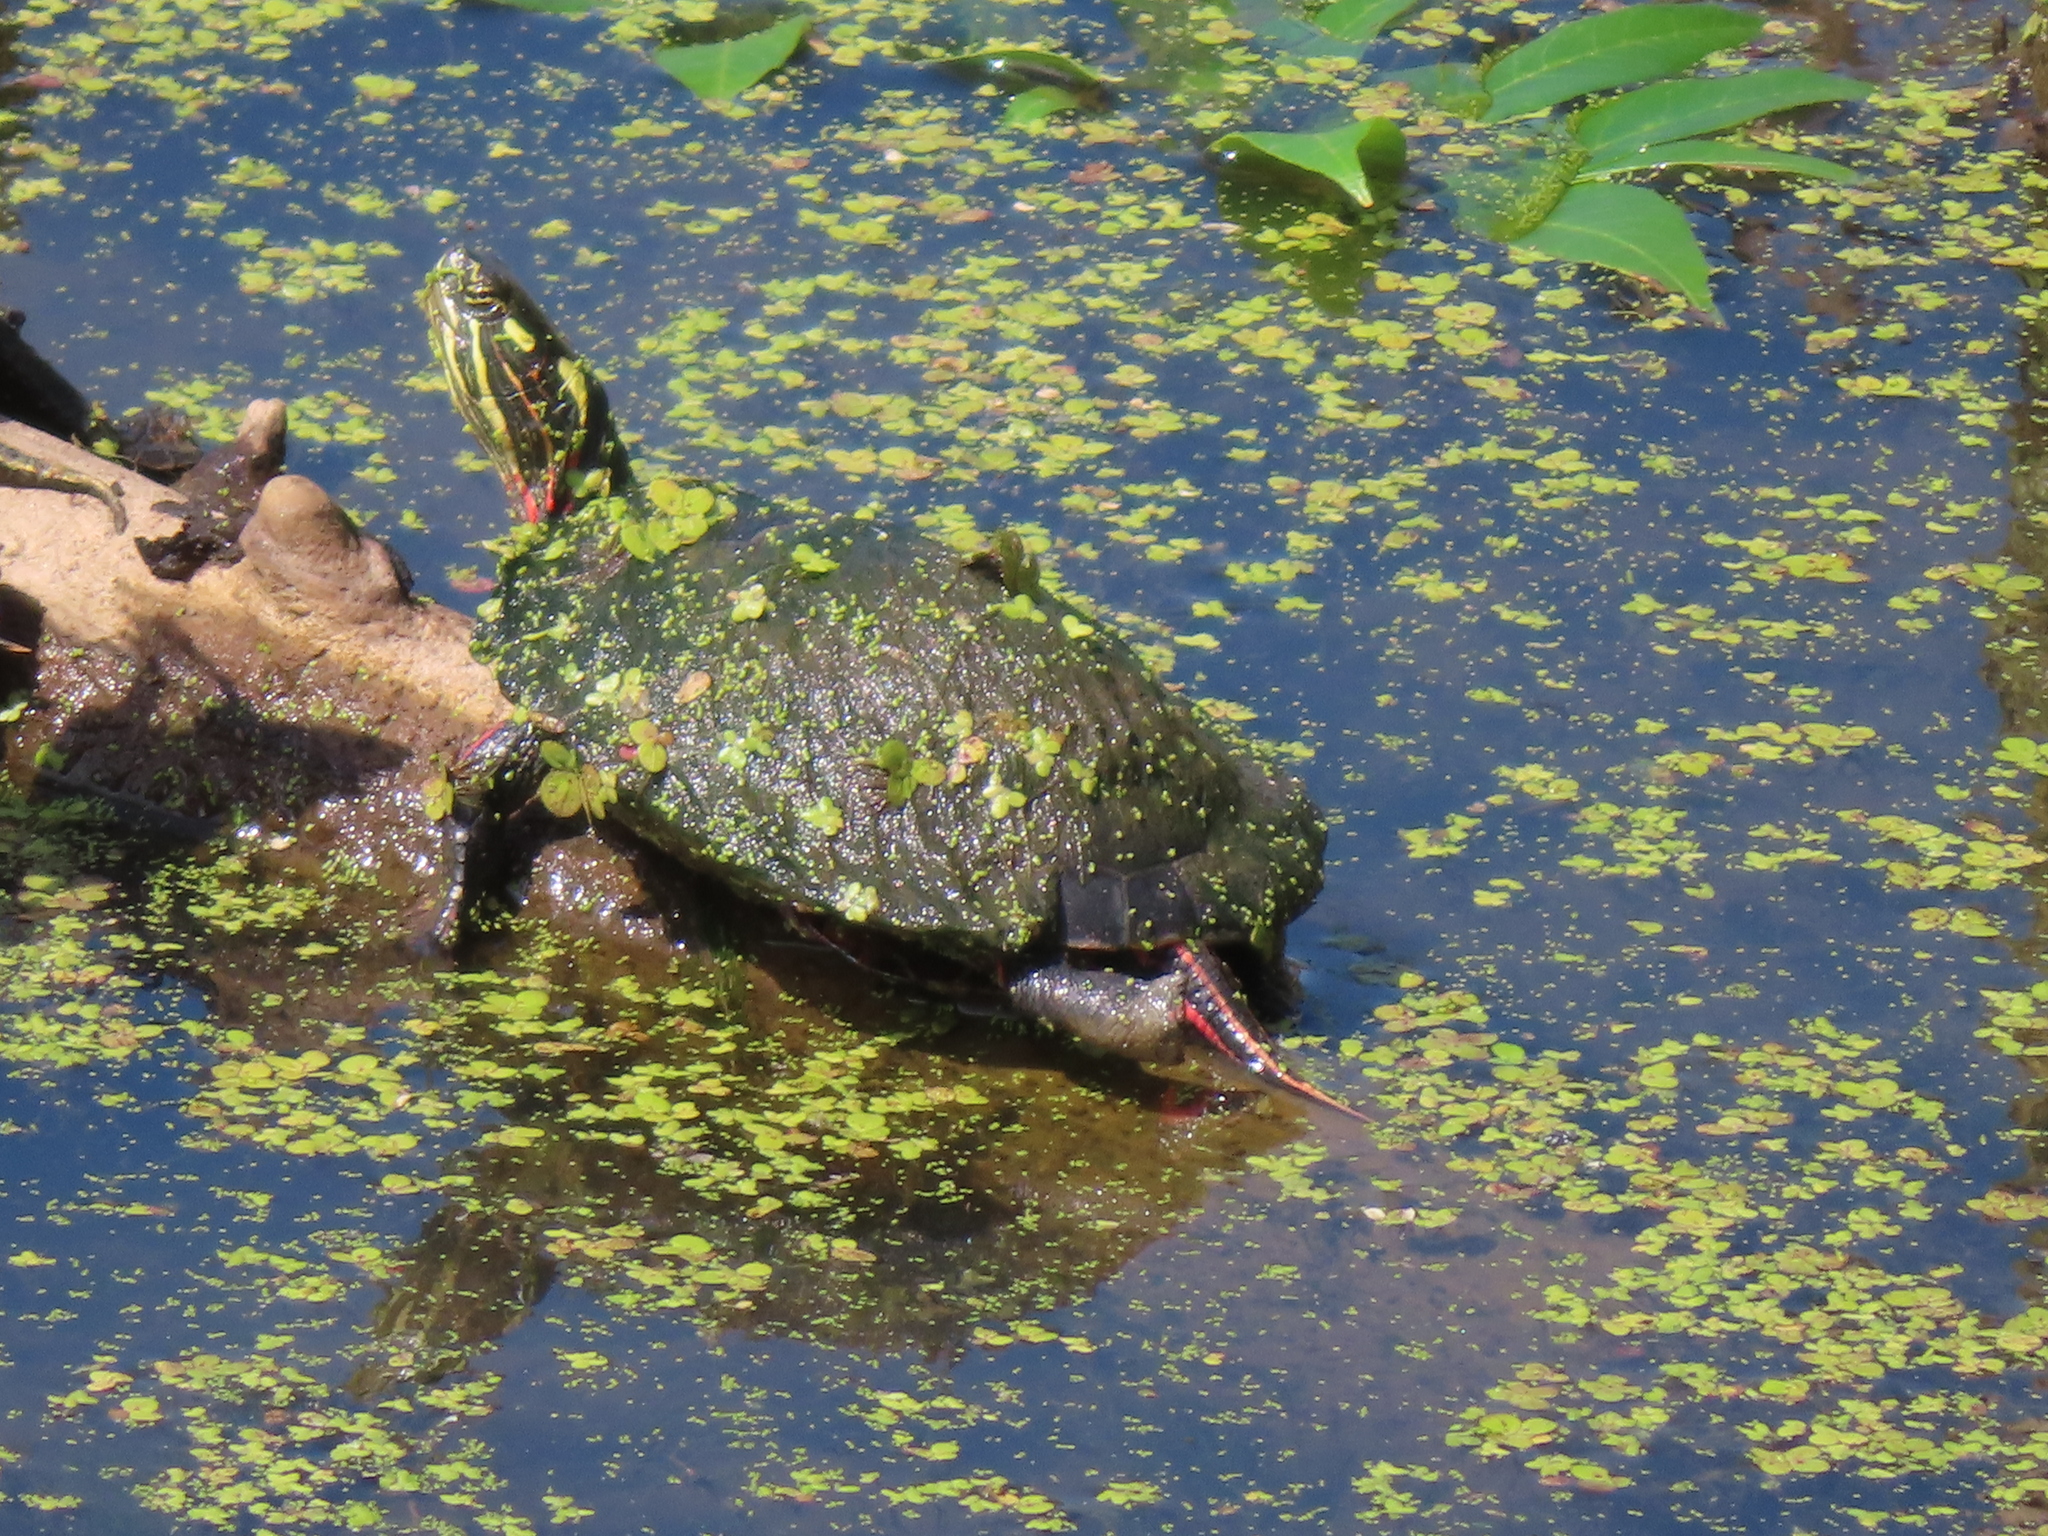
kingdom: Animalia
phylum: Chordata
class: Testudines
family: Emydidae
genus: Chrysemys
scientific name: Chrysemys picta
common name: Painted turtle
